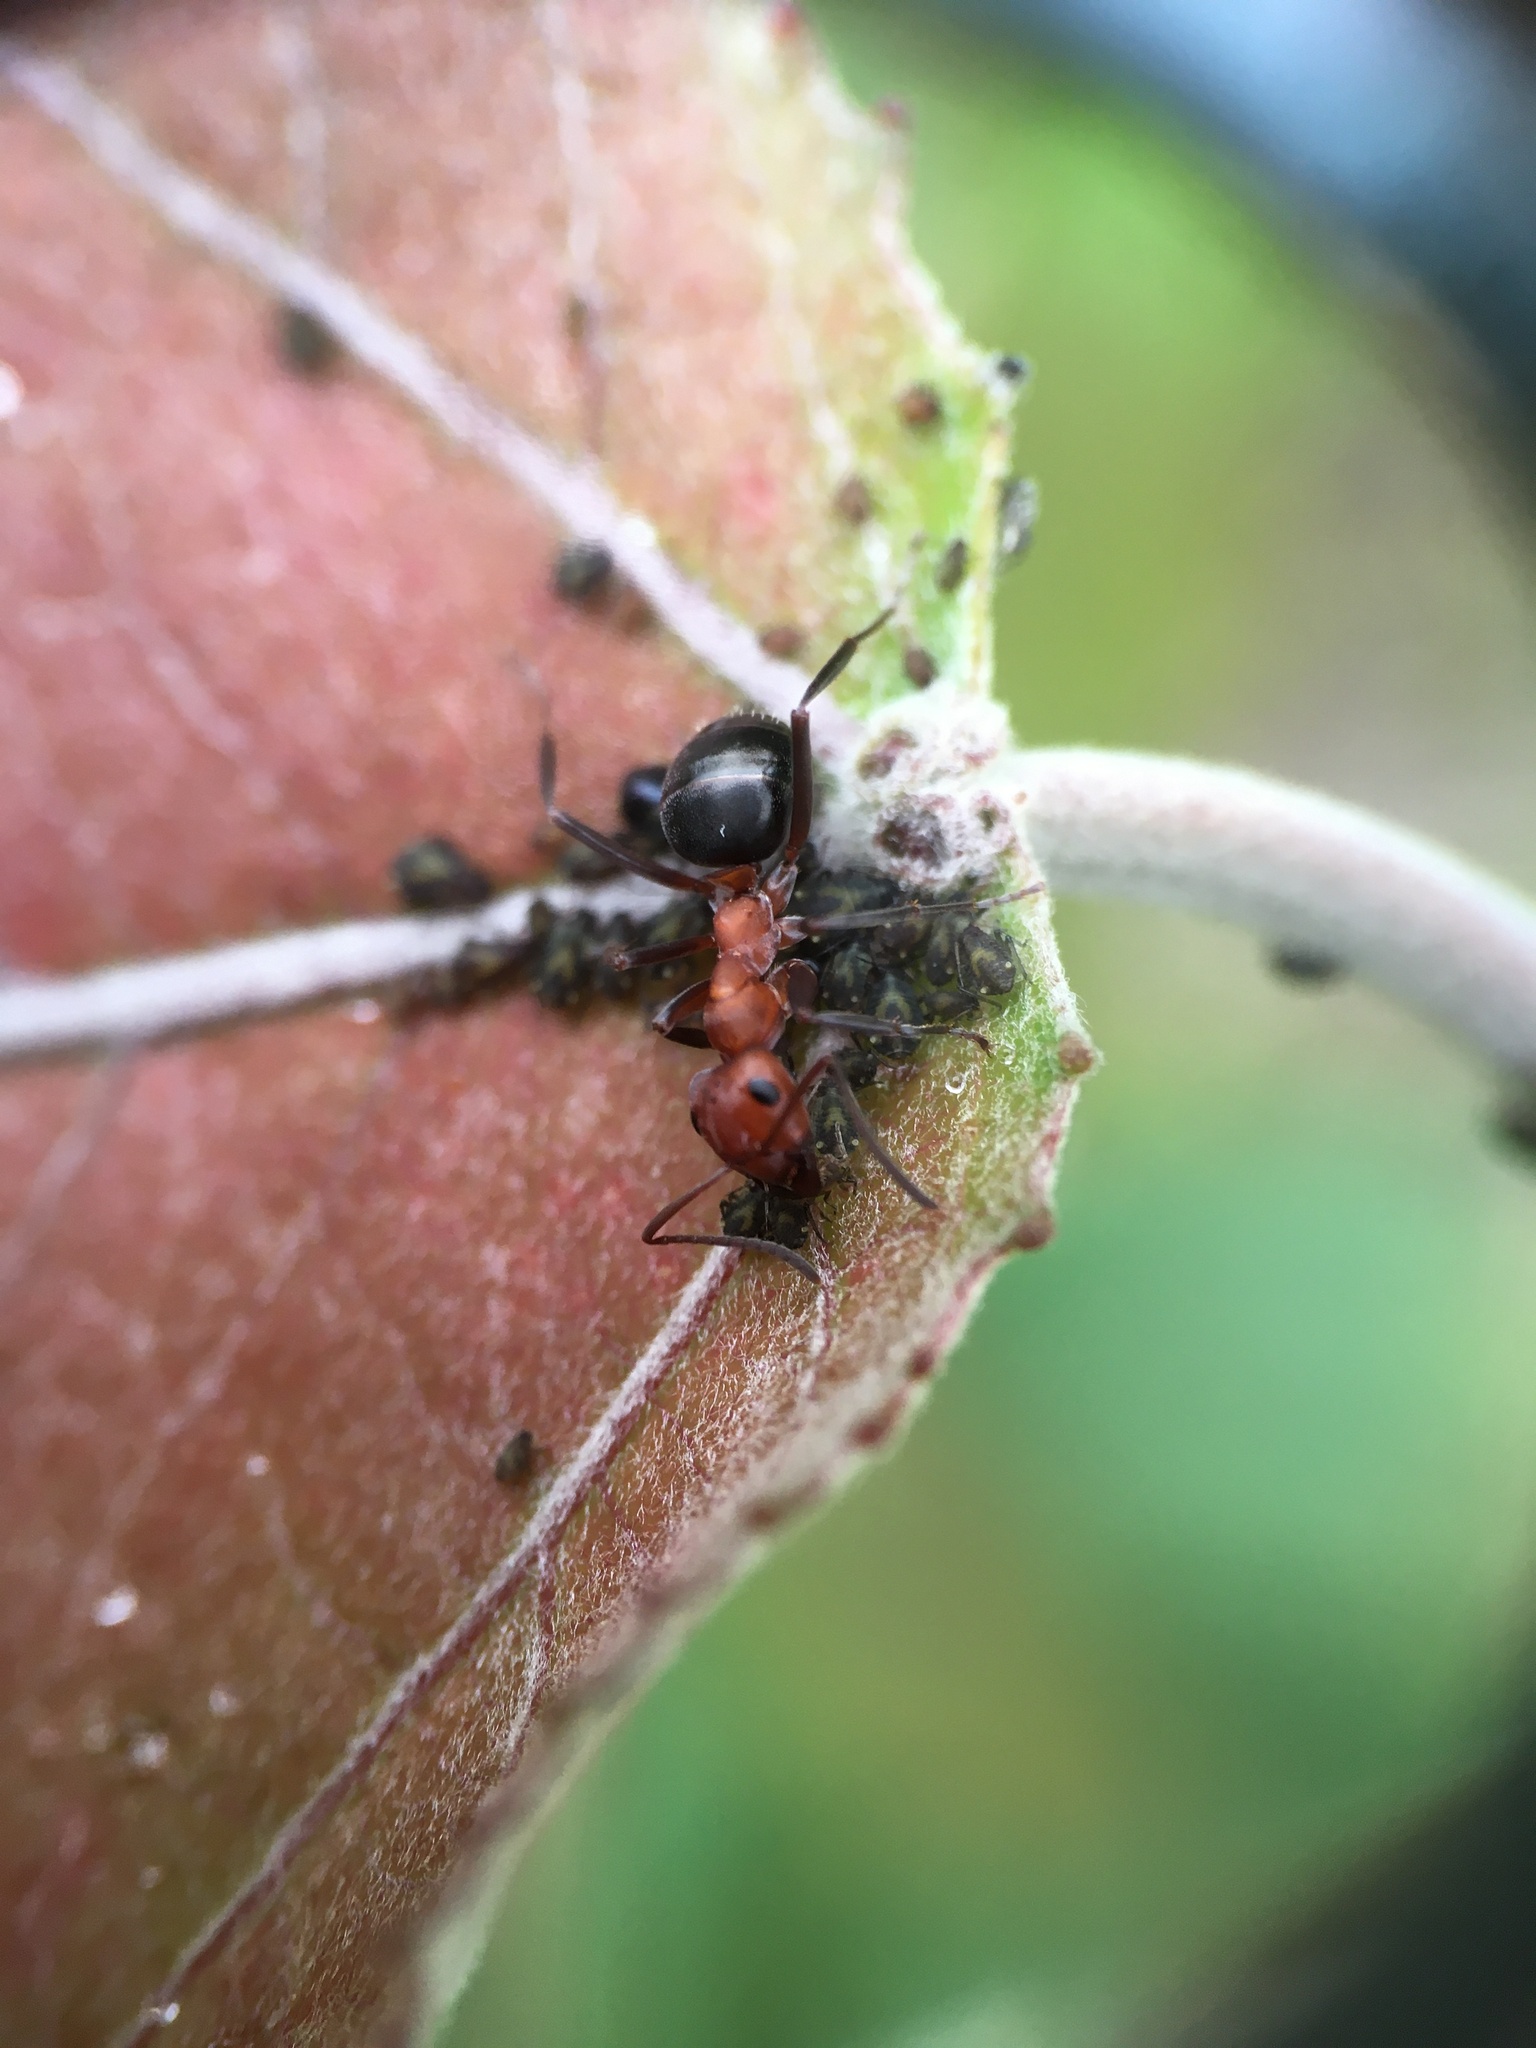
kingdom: Animalia
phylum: Arthropoda
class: Insecta
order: Hymenoptera
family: Formicidae
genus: Formica
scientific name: Formica exsectoides
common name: Allegheny mound ant
